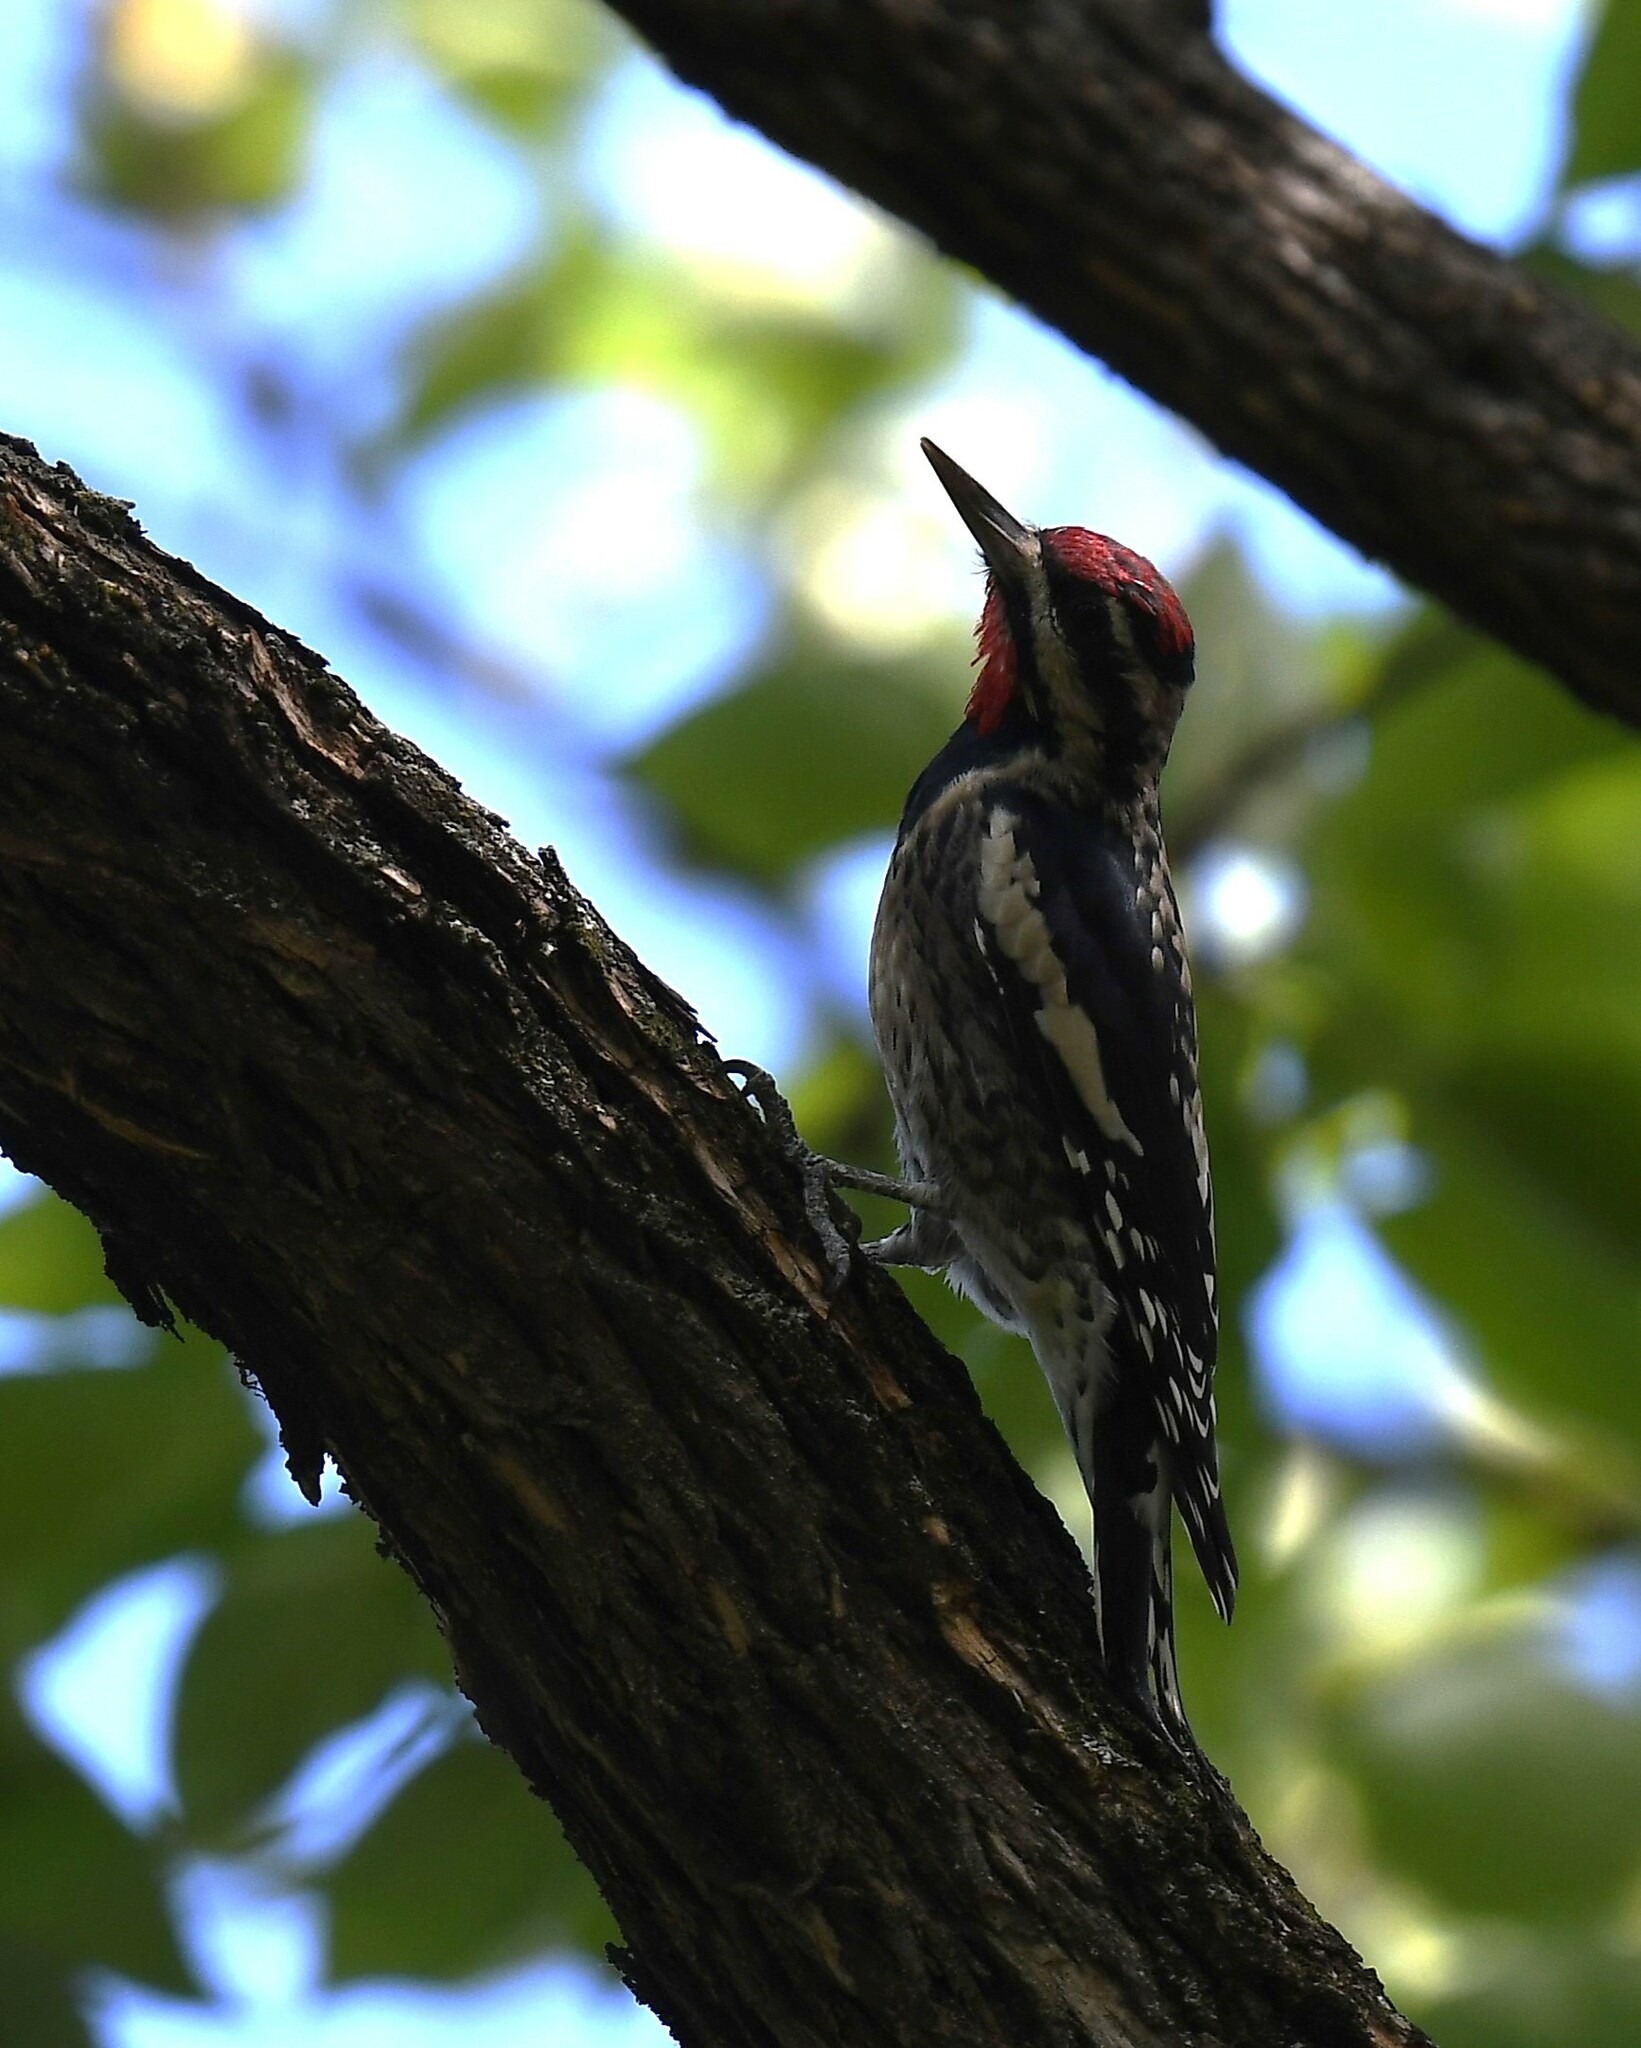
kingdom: Animalia
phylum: Chordata
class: Aves
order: Piciformes
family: Picidae
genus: Sphyrapicus
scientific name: Sphyrapicus varius
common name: Yellow-bellied sapsucker
